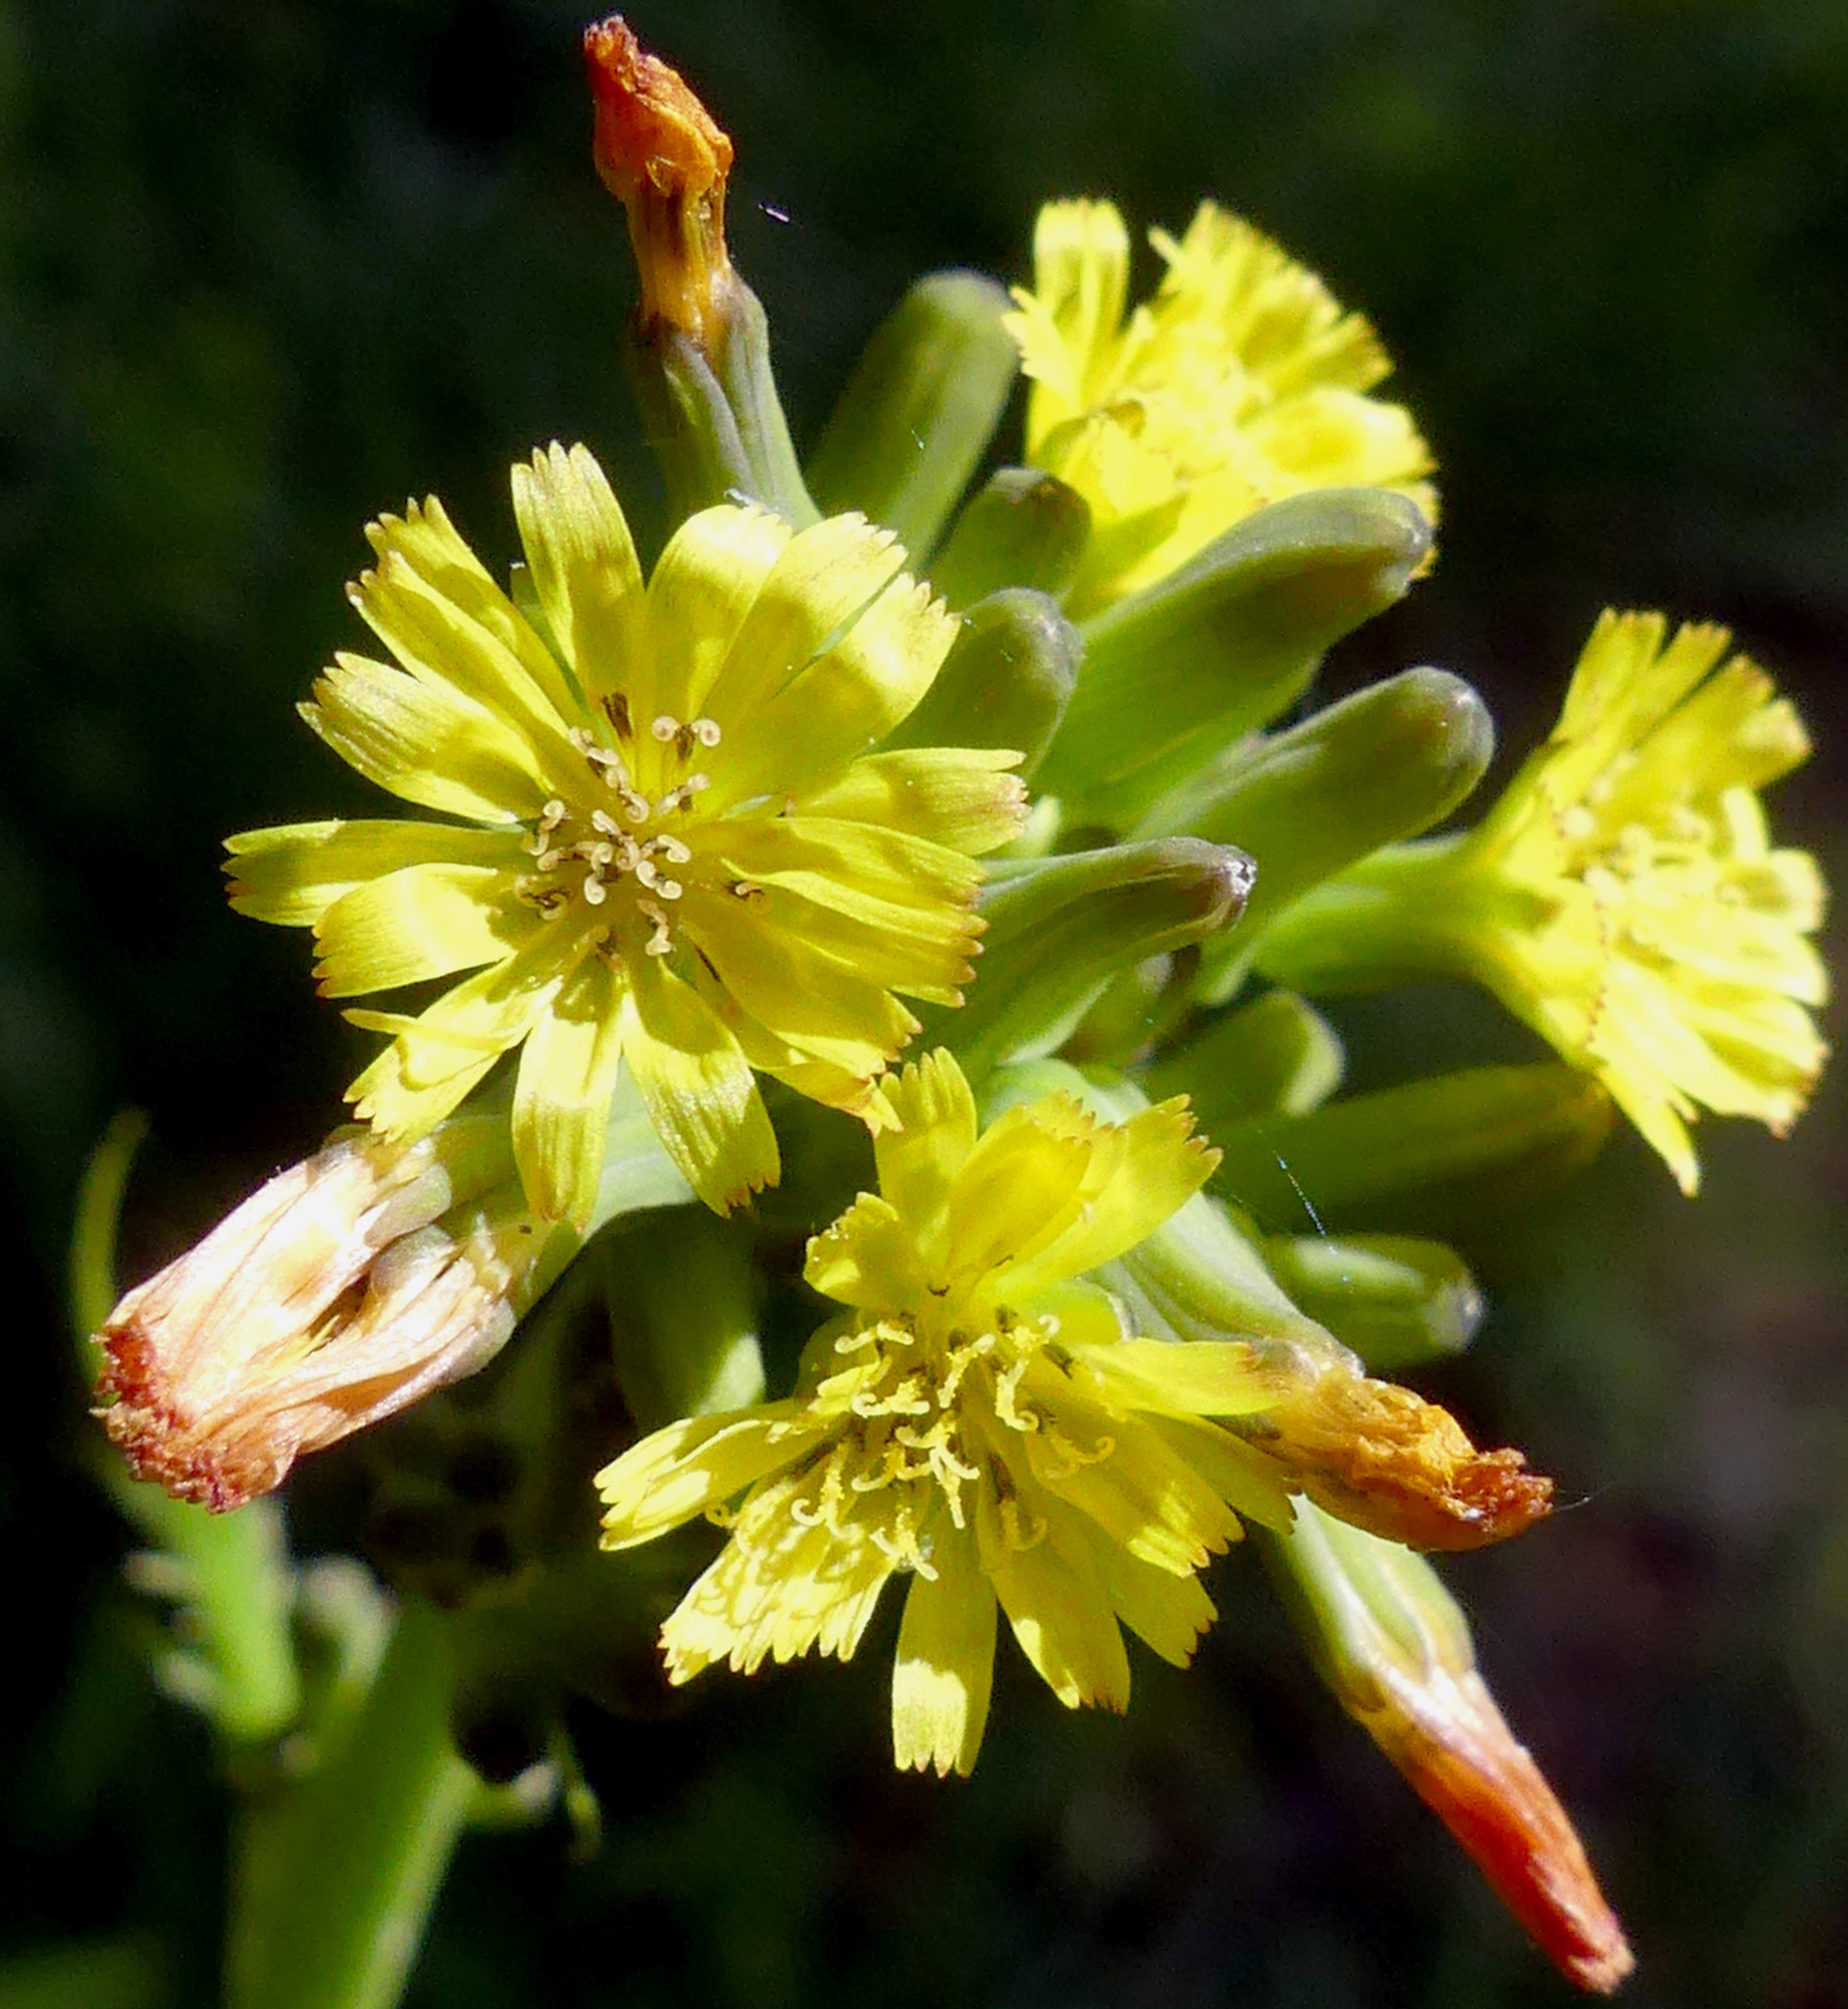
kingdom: Plantae
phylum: Tracheophyta
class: Magnoliopsida
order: Asterales
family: Asteraceae
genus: Youngia
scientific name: Youngia japonica
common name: Oriental false hawksbeard
